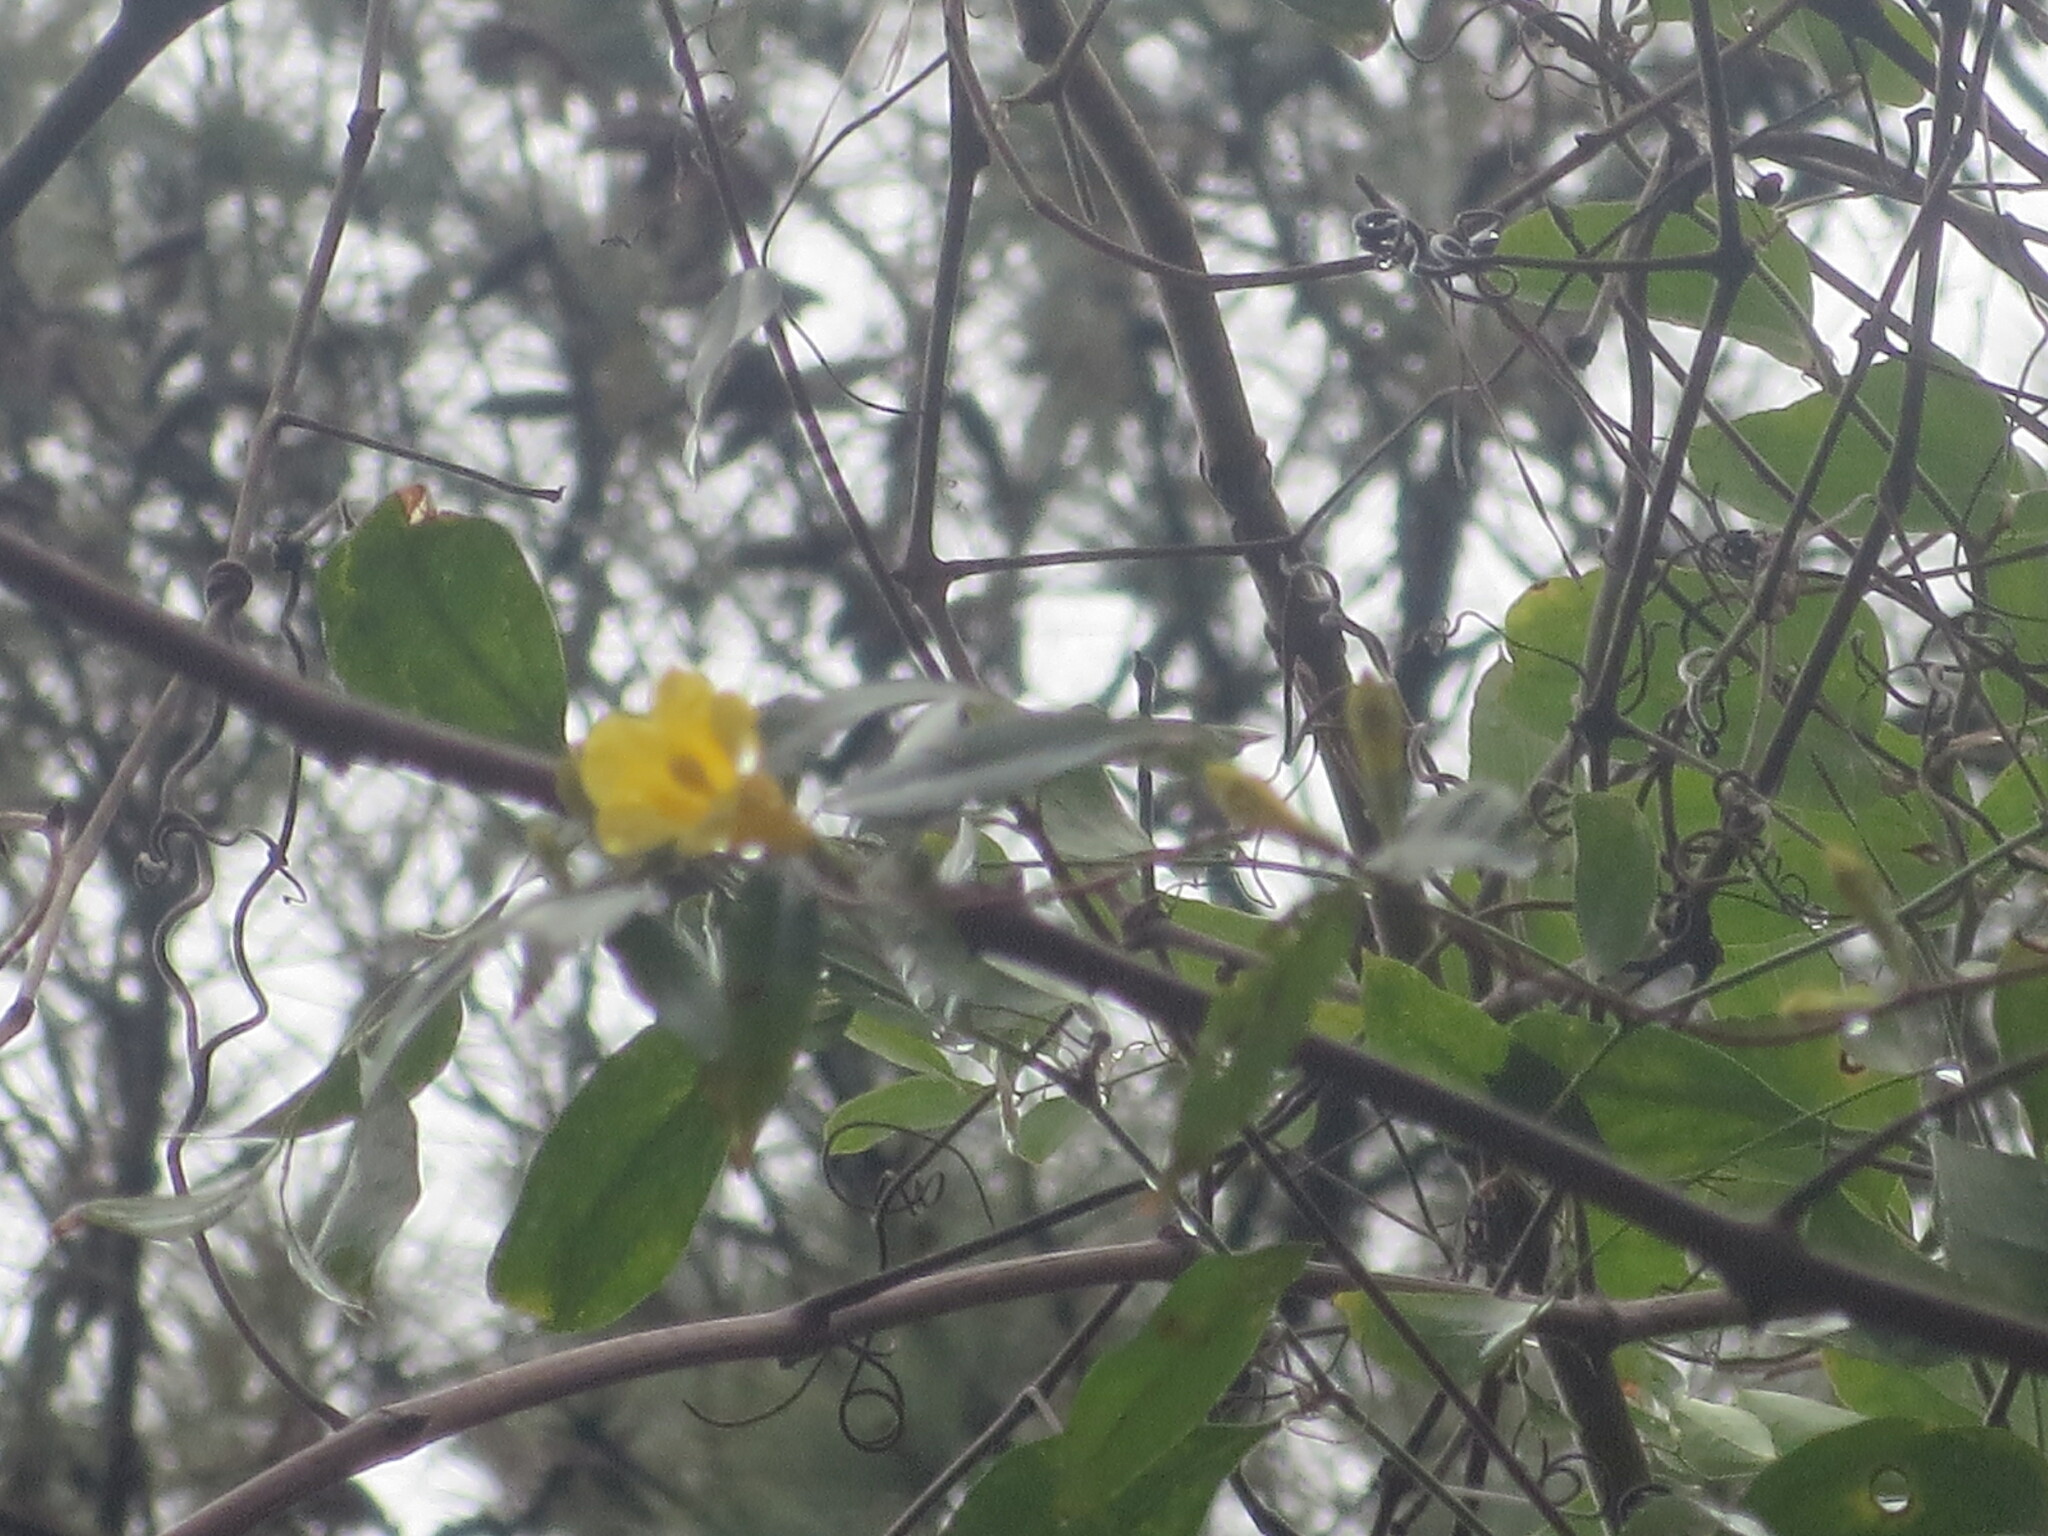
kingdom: Plantae
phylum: Tracheophyta
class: Magnoliopsida
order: Gentianales
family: Gelsemiaceae
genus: Gelsemium
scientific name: Gelsemium sempervirens
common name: Carolina-jasmine
